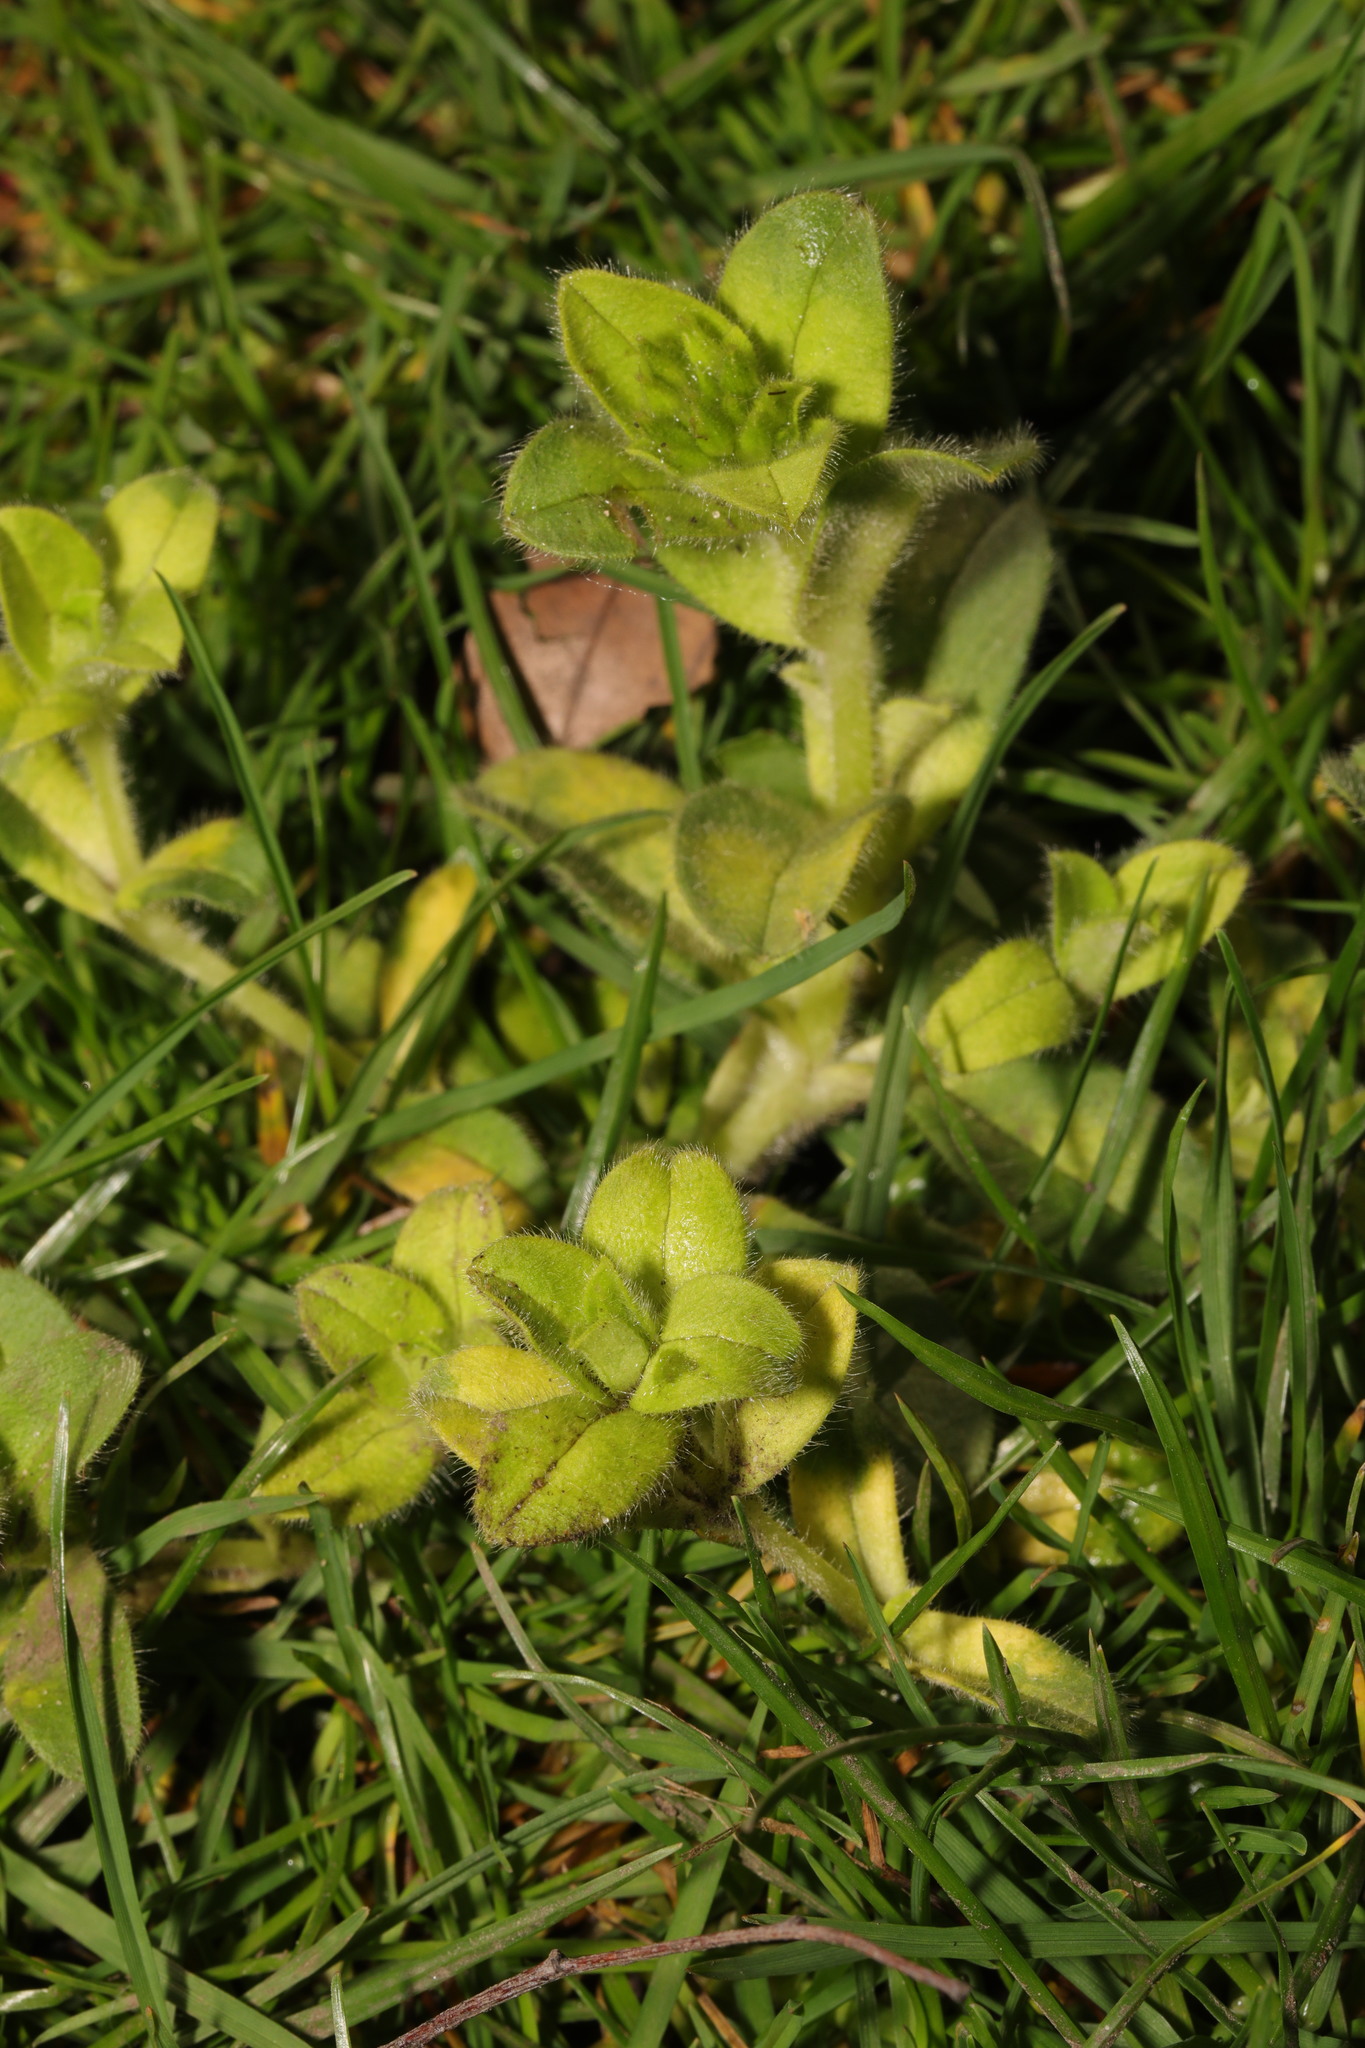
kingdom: Plantae
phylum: Tracheophyta
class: Magnoliopsida
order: Caryophyllales
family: Caryophyllaceae
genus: Cerastium
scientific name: Cerastium glomeratum
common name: Sticky chickweed
